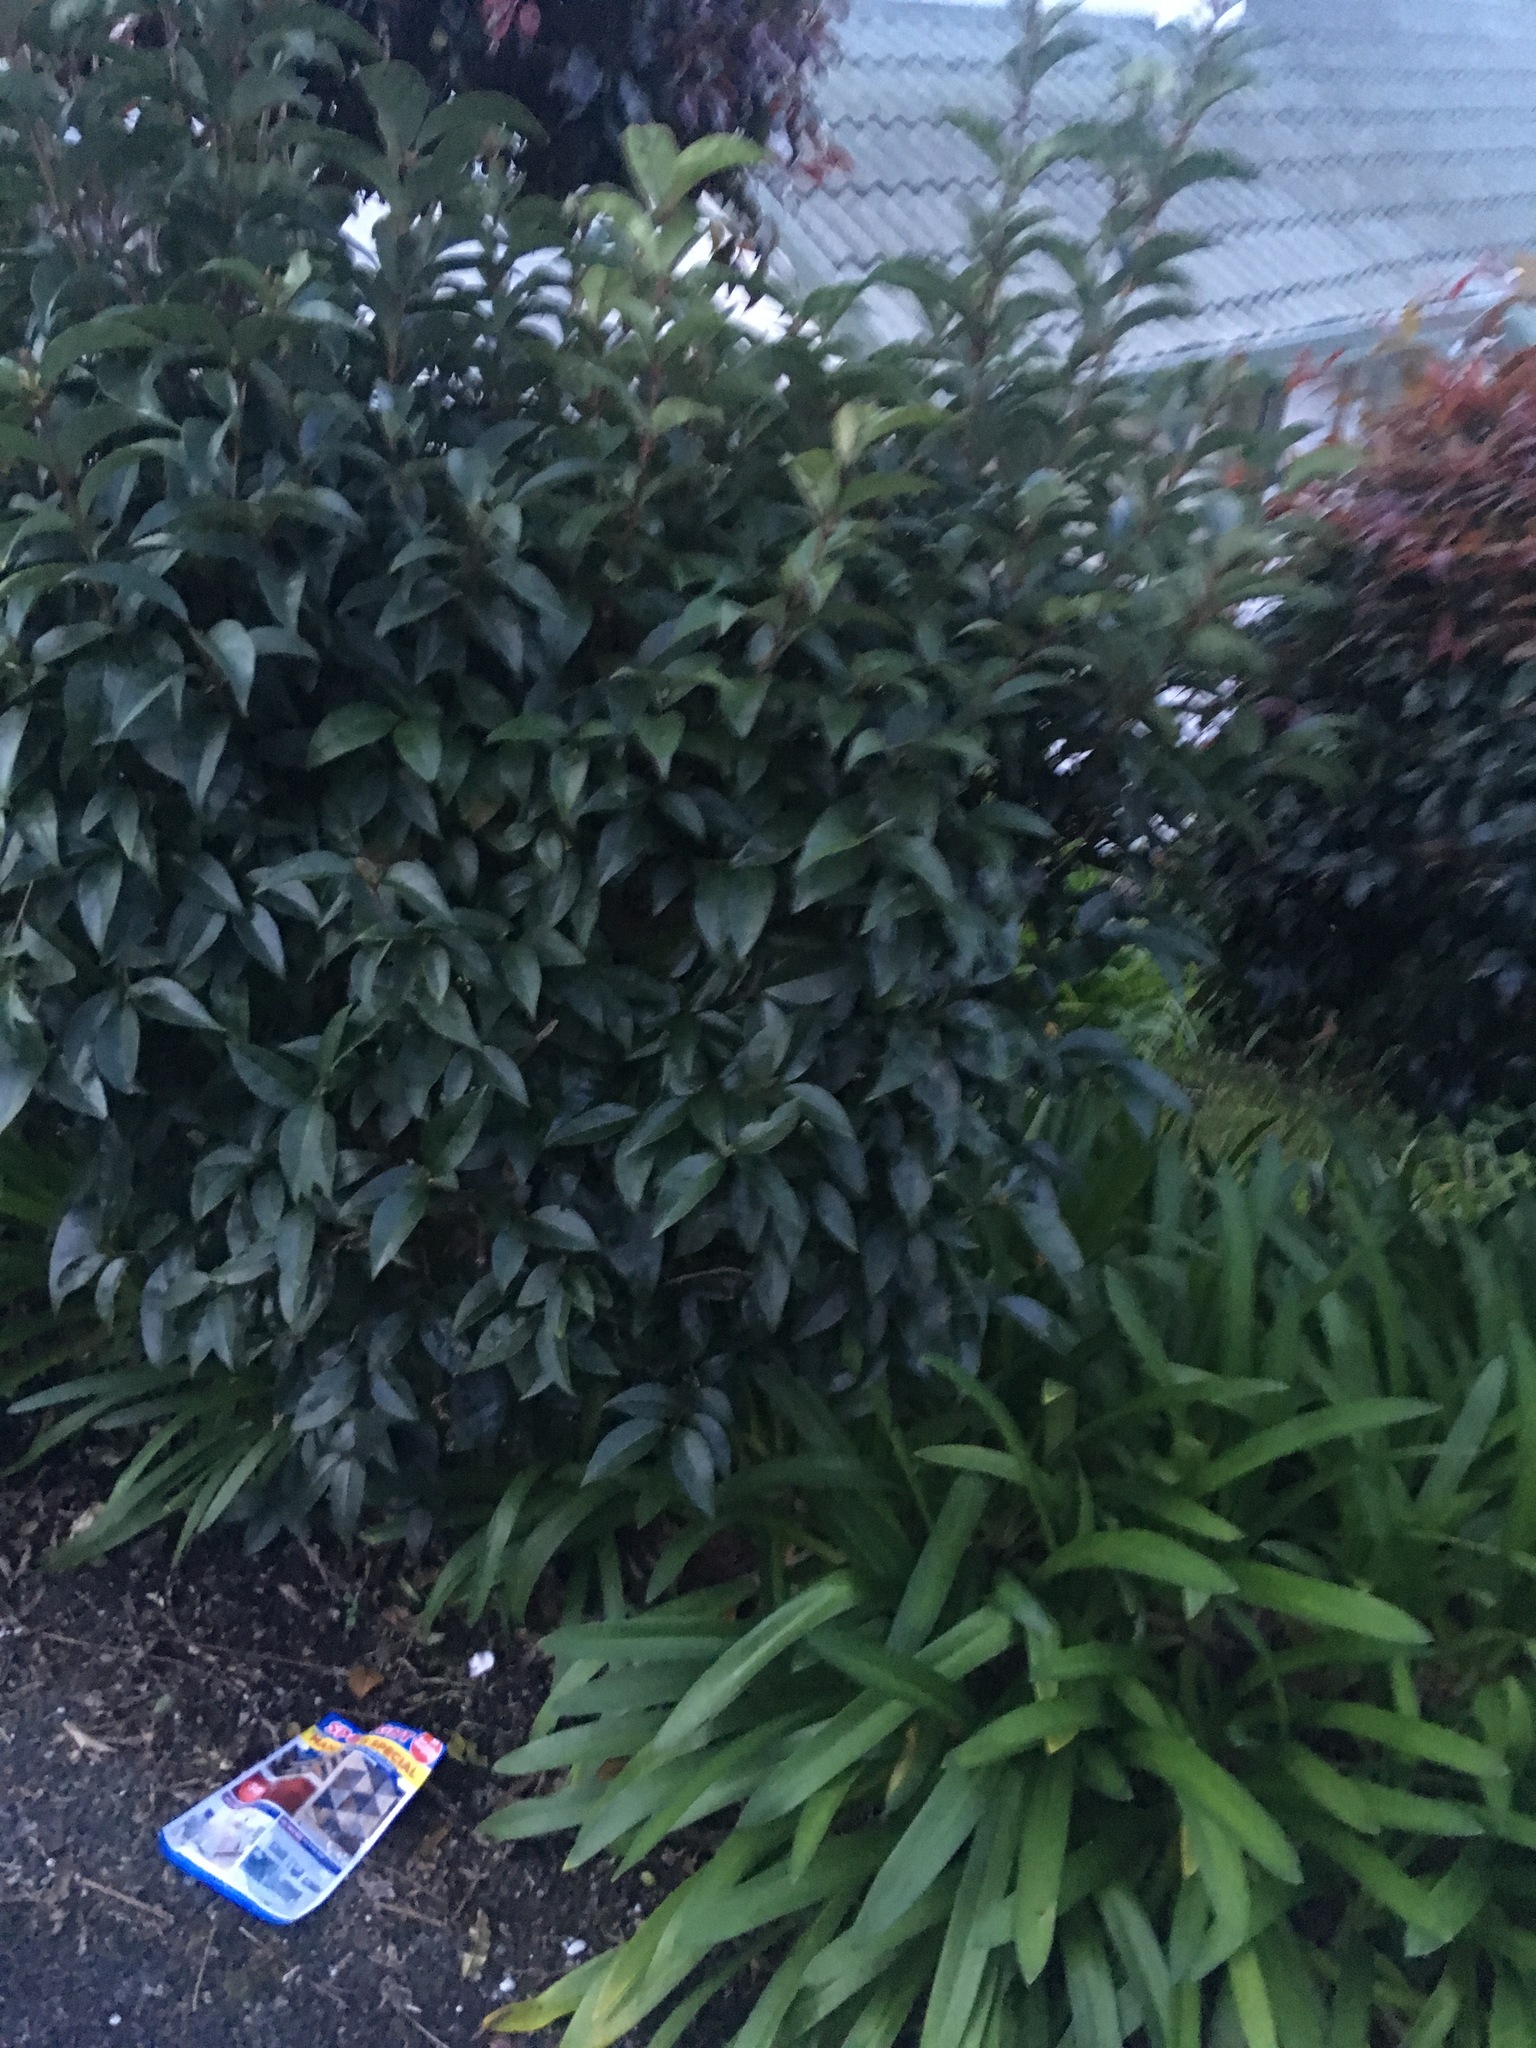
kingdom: Plantae
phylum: Tracheophyta
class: Magnoliopsida
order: Lamiales
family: Oleaceae
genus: Ligustrum
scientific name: Ligustrum lucidum
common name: Glossy privet
